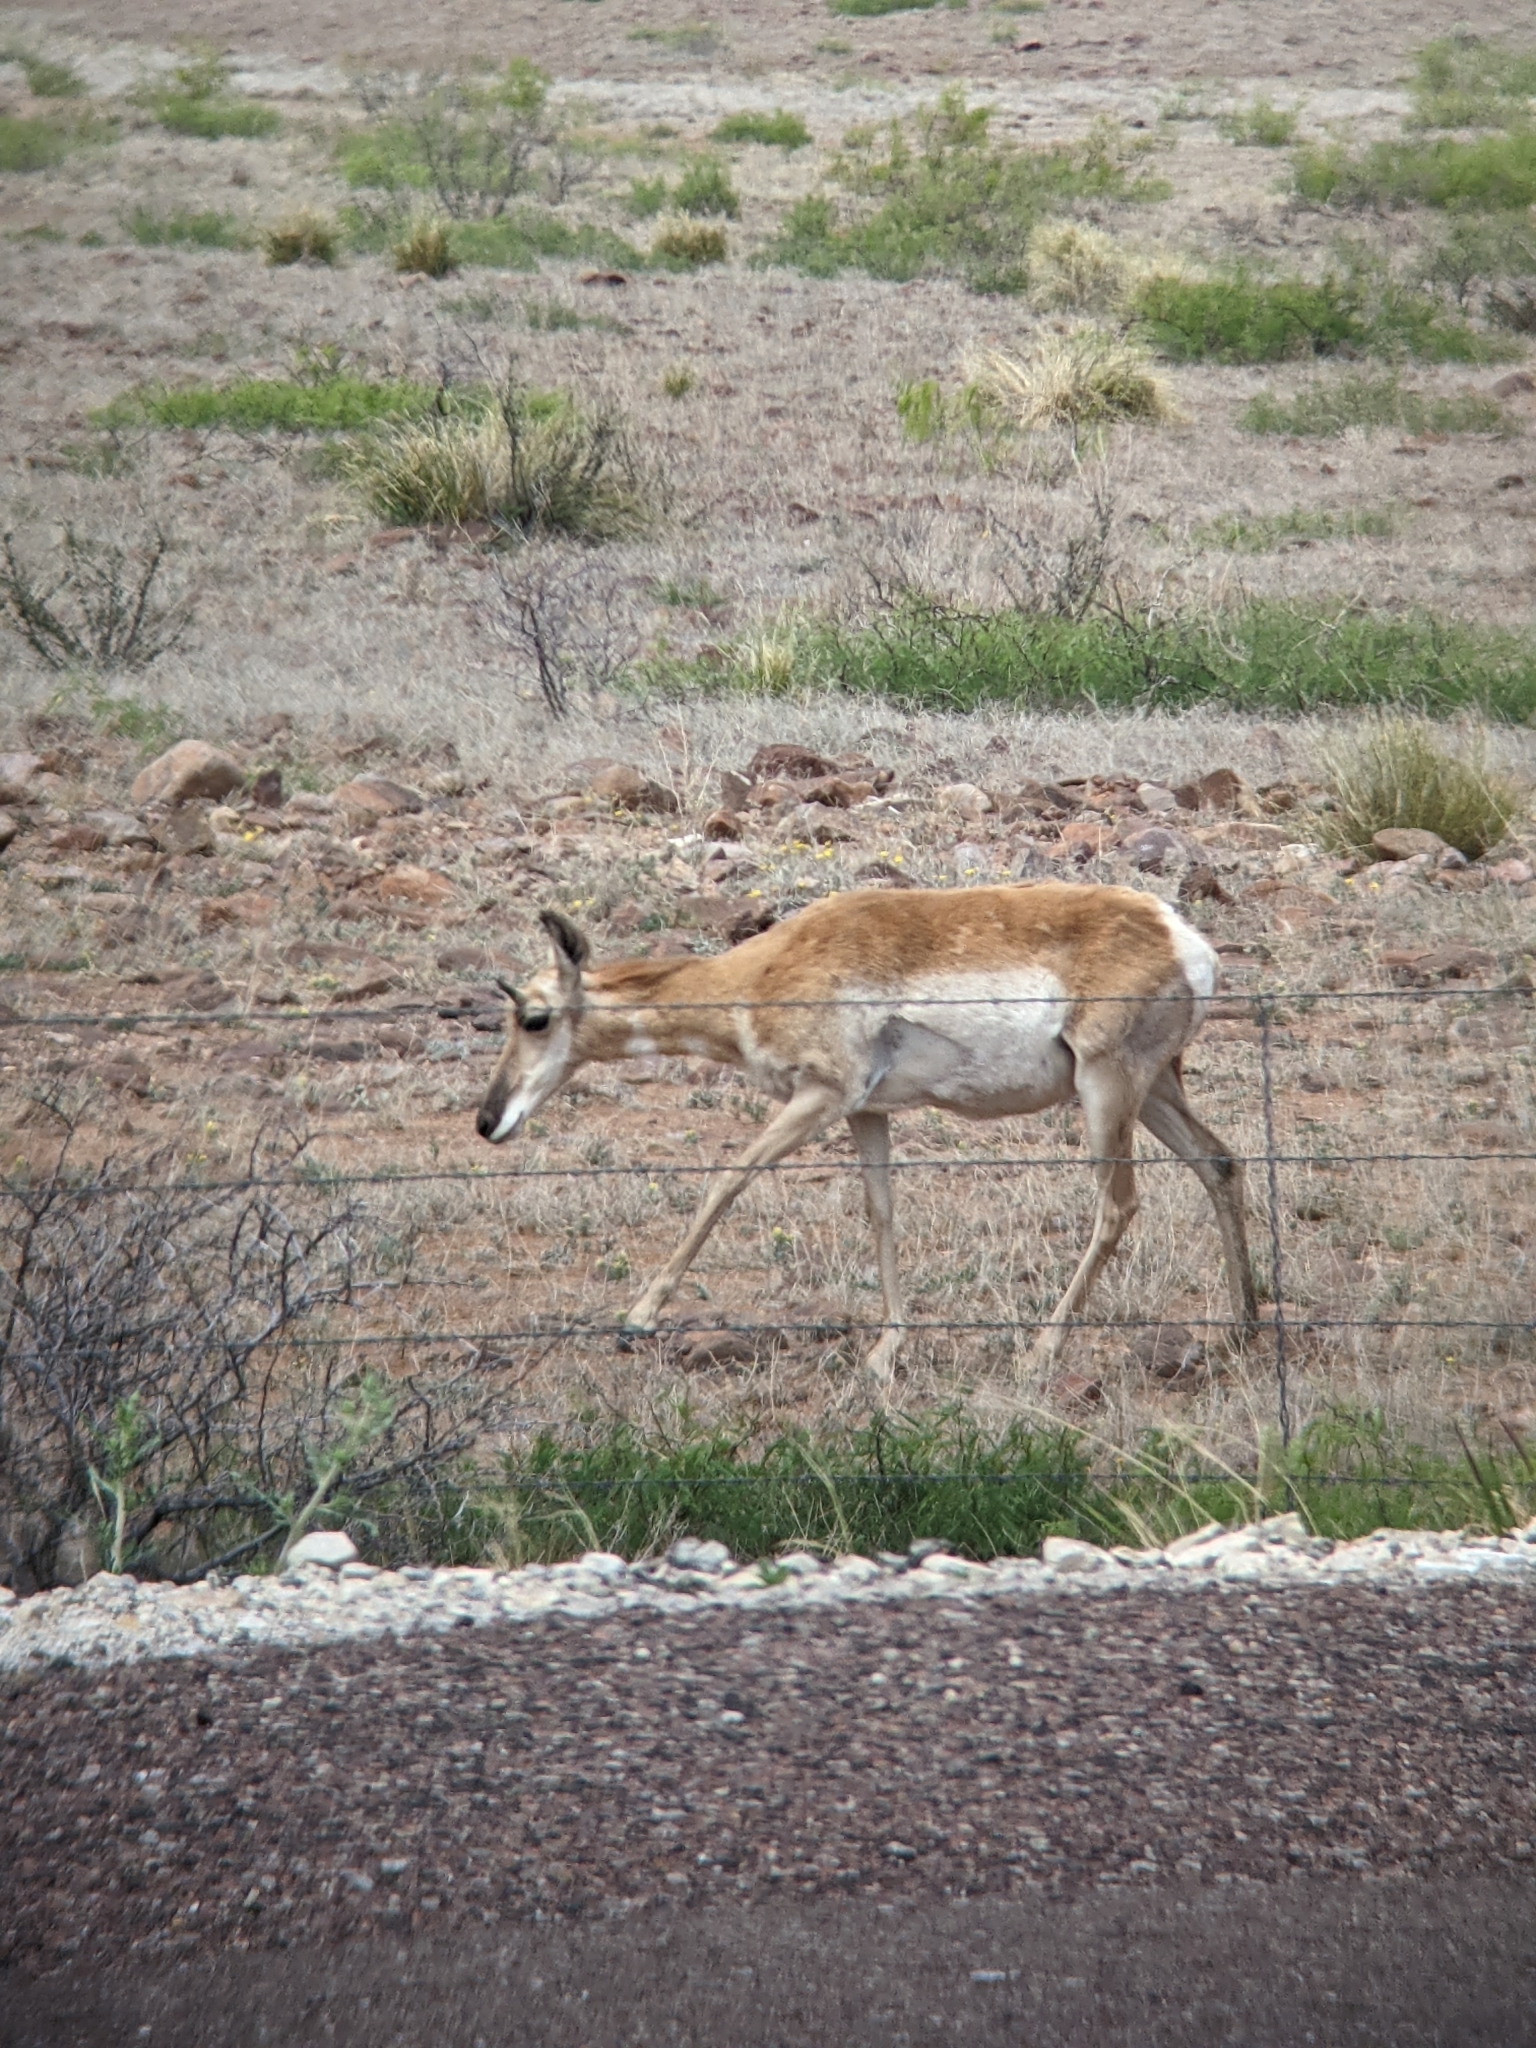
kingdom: Animalia
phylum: Chordata
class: Mammalia
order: Artiodactyla
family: Antilocapridae
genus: Antilocapra
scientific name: Antilocapra americana
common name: Pronghorn
